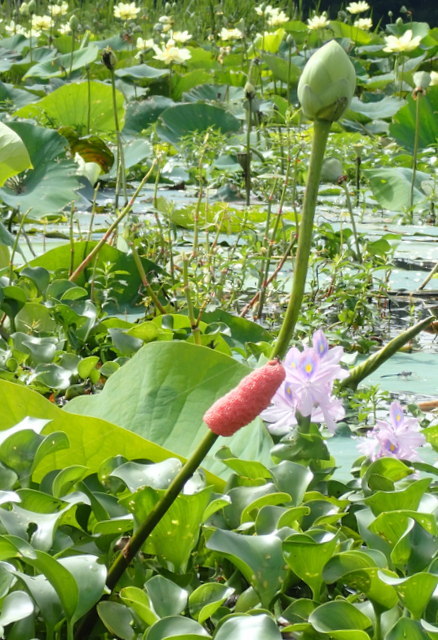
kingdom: Animalia
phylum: Mollusca
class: Gastropoda
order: Architaenioglossa
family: Ampullariidae
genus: Pomacea
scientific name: Pomacea maculata
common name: Giant applesnail
